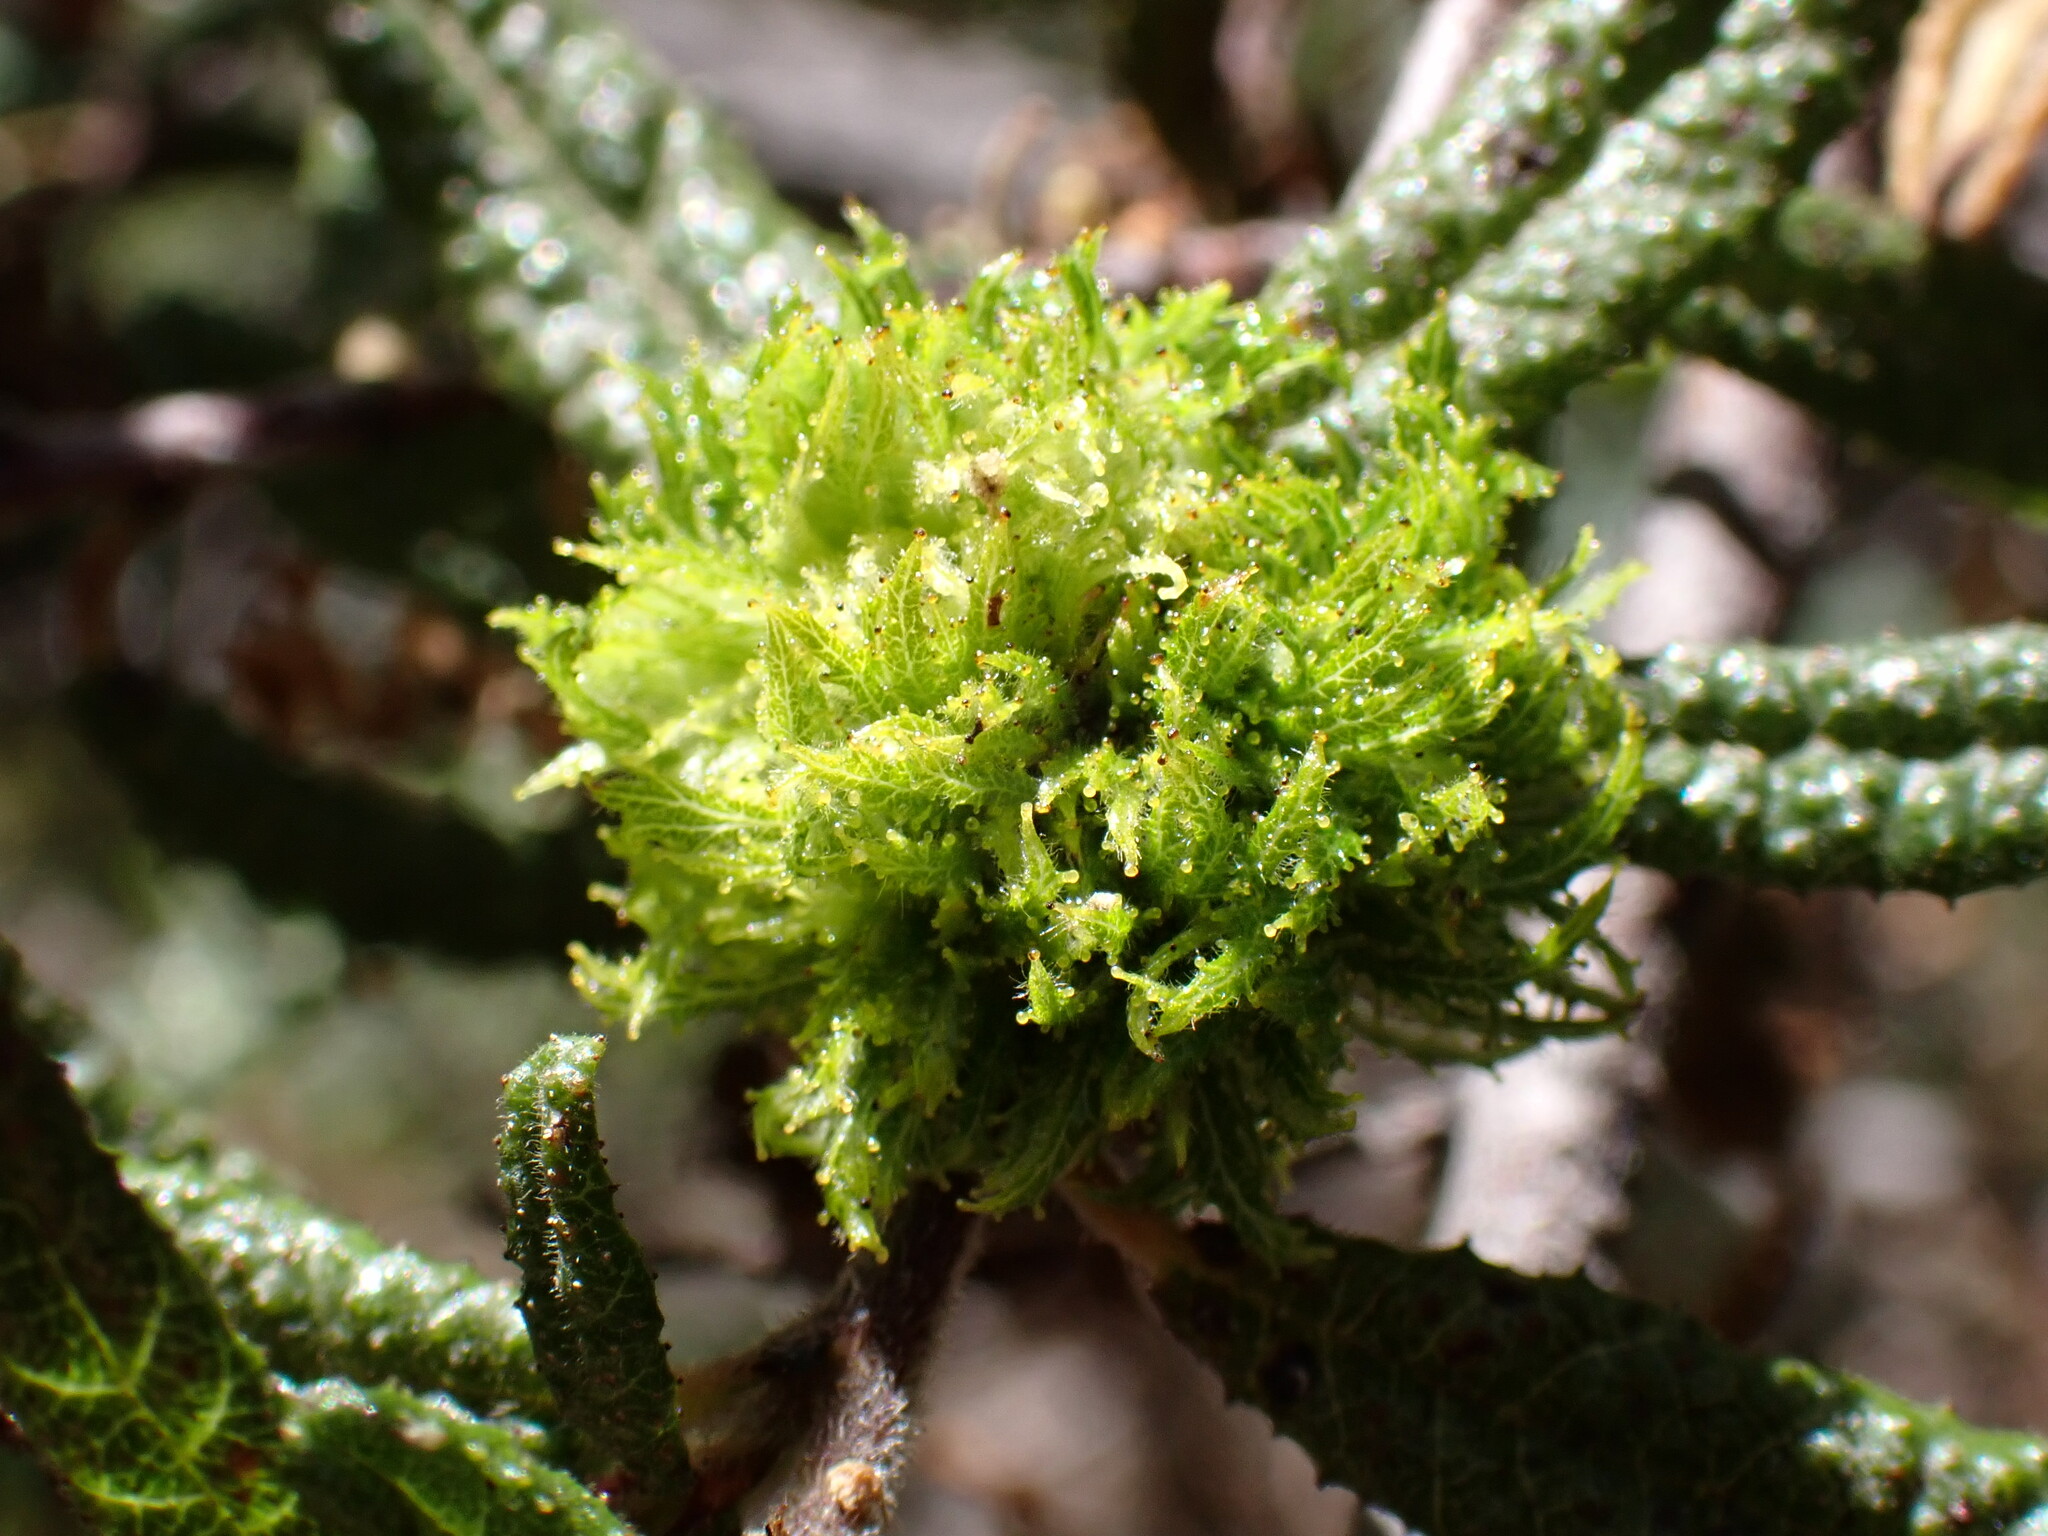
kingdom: Animalia
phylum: Arthropoda
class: Insecta
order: Diptera
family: Cecidomyiidae
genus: Asphondylia
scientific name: Asphondylia ceanothi
